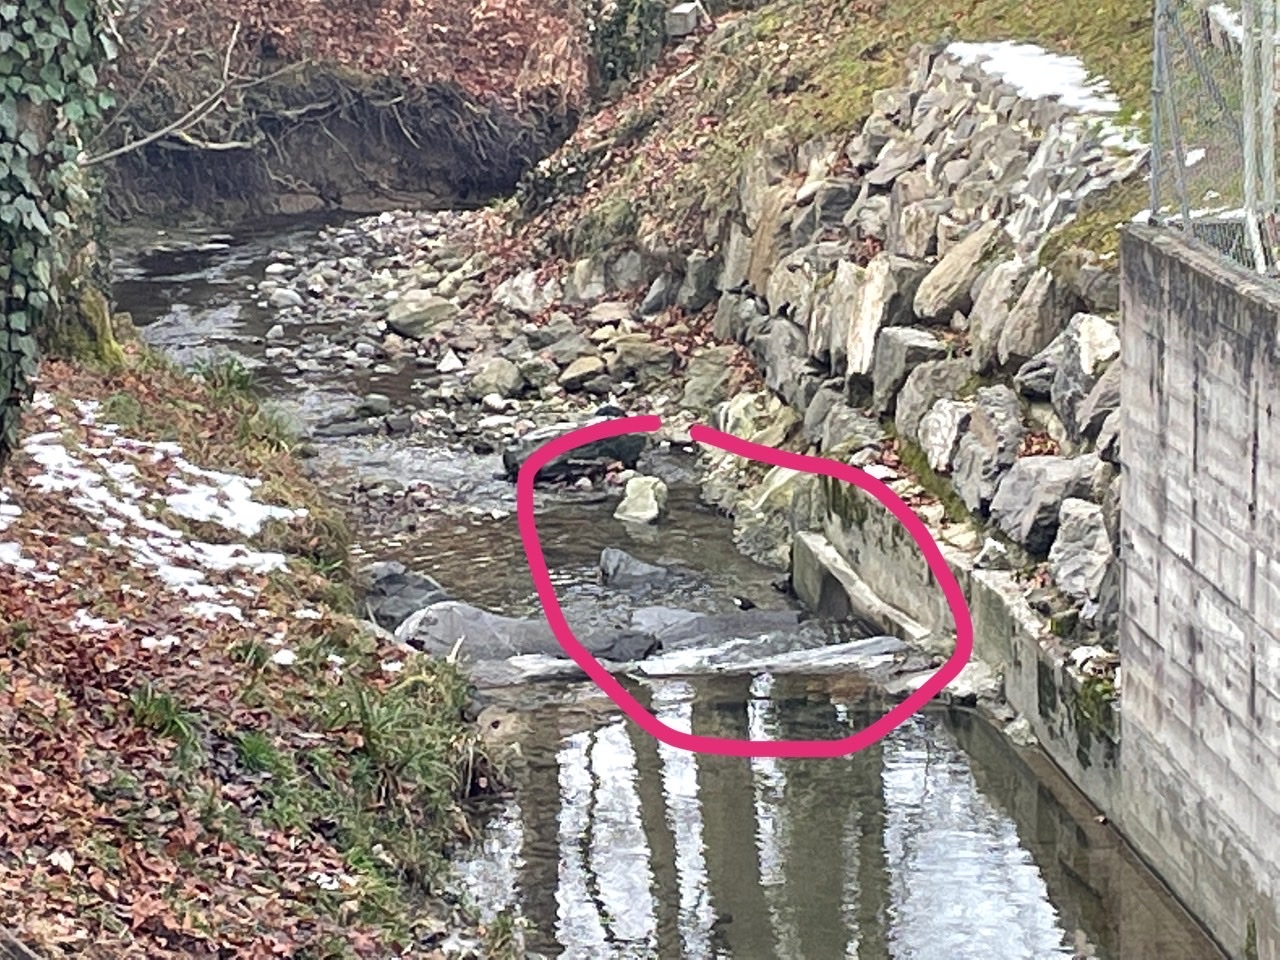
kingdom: Animalia
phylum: Chordata
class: Aves
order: Passeriformes
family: Cinclidae
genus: Cinclus
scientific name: Cinclus cinclus
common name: White-throated dipper
